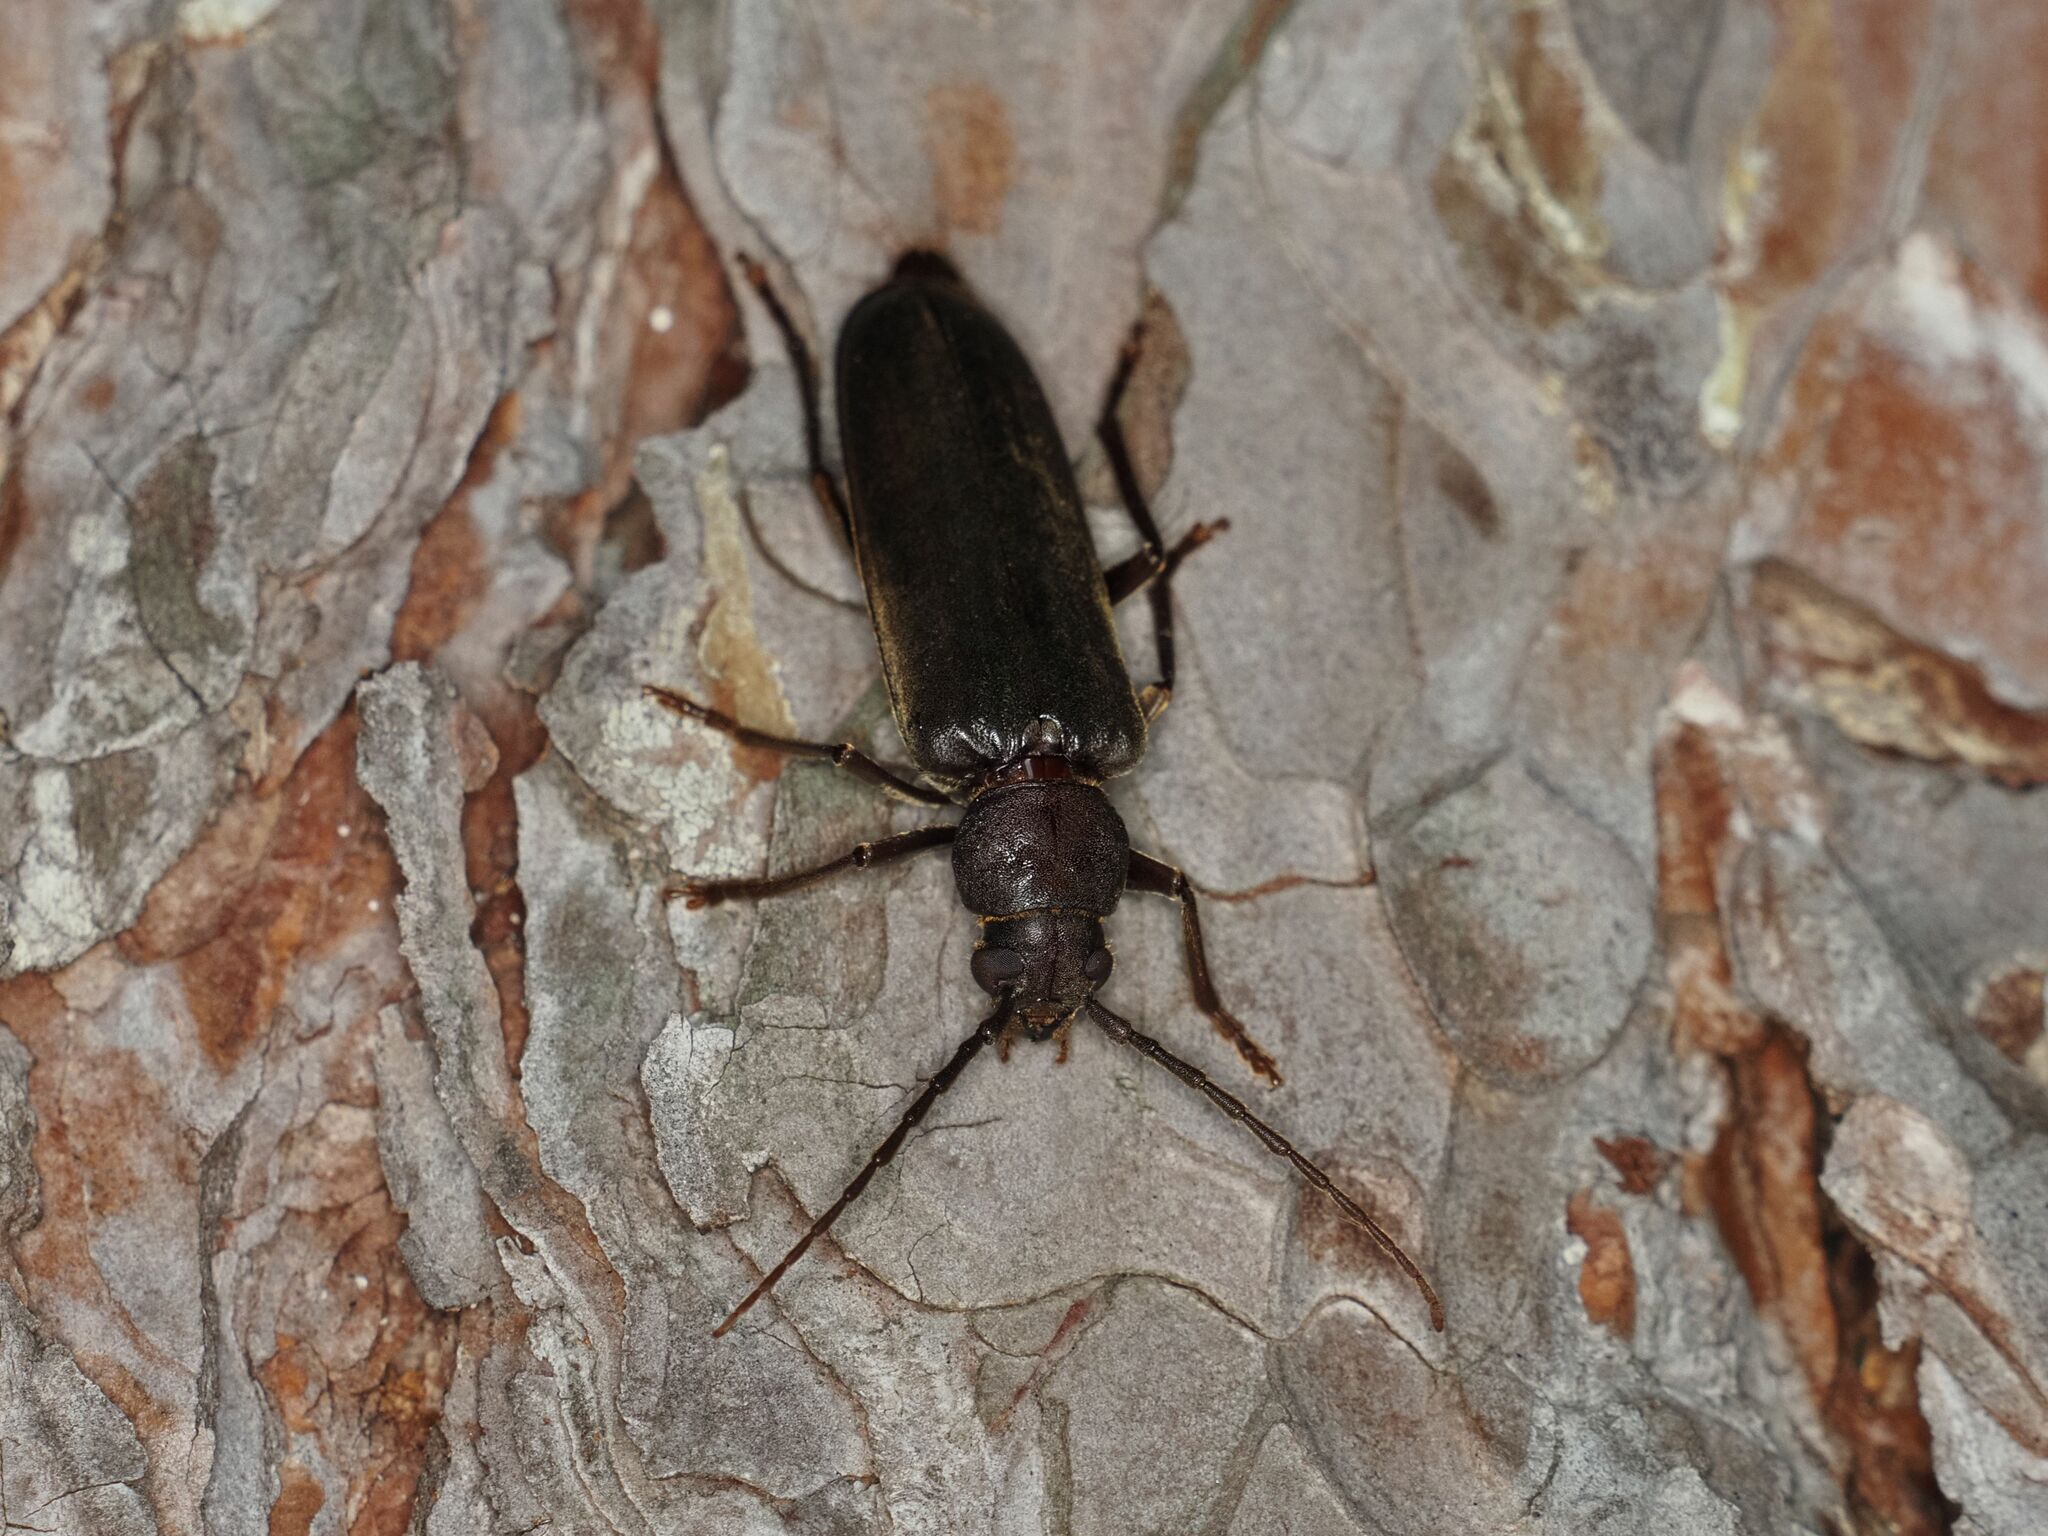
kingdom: Animalia
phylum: Arthropoda
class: Insecta
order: Coleoptera
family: Cerambycidae
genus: Arhopalus
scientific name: Arhopalus rusticus
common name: Rust pine borer
